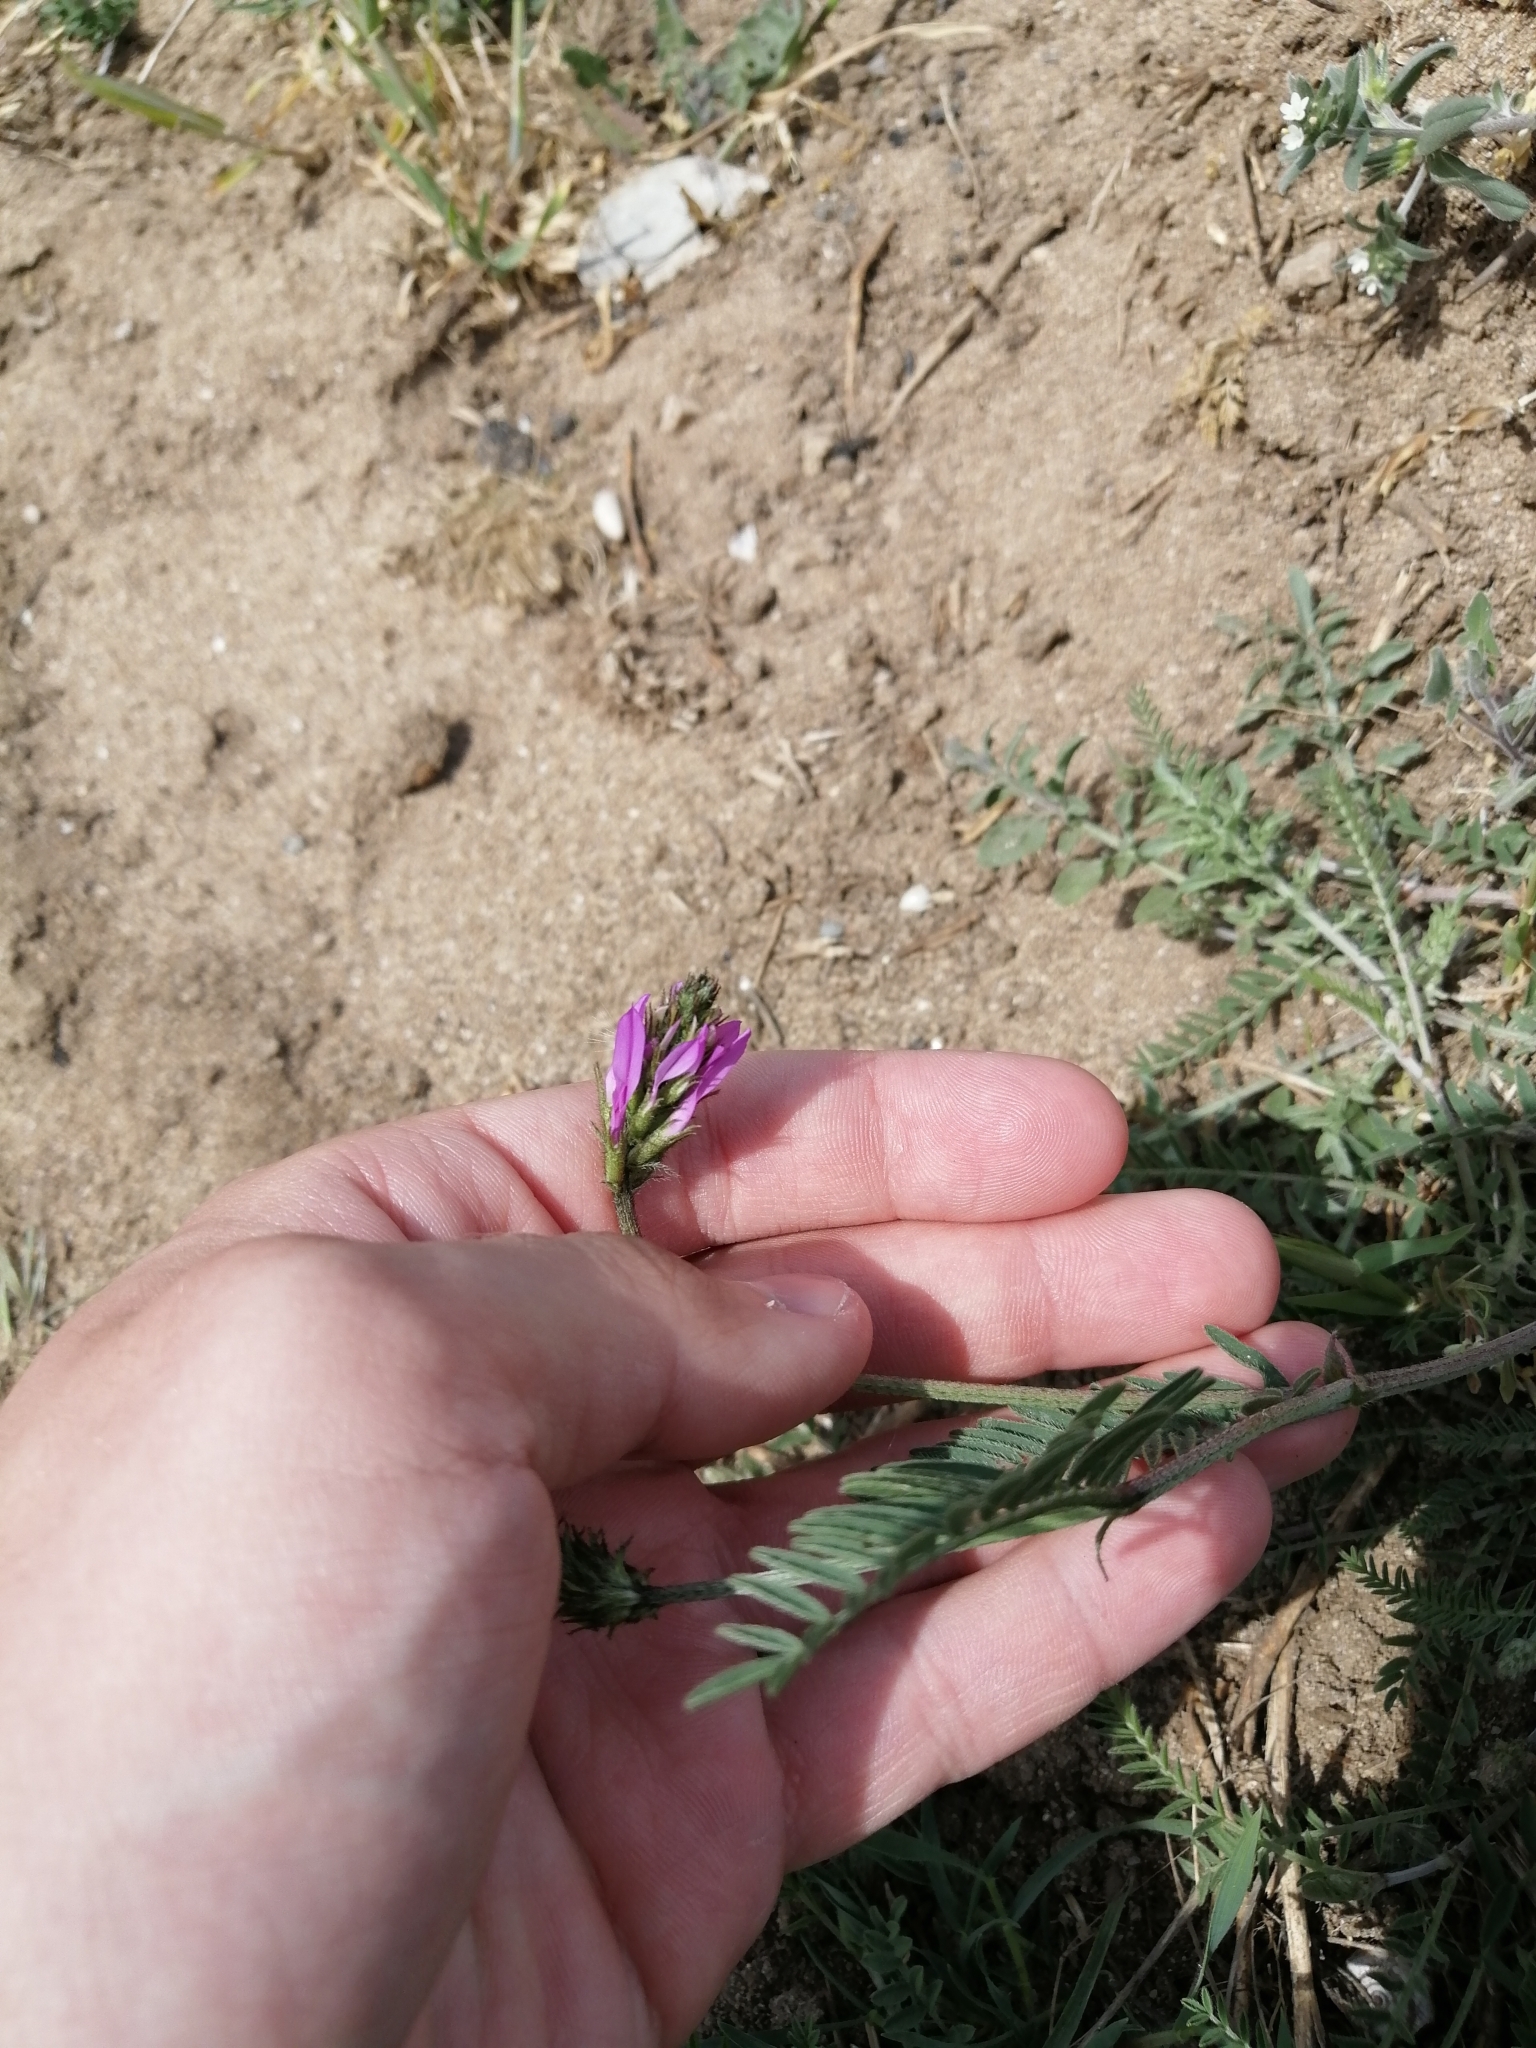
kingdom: Plantae
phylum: Tracheophyta
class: Magnoliopsida
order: Fabales
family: Fabaceae
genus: Astragalus
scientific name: Astragalus onobrychis
